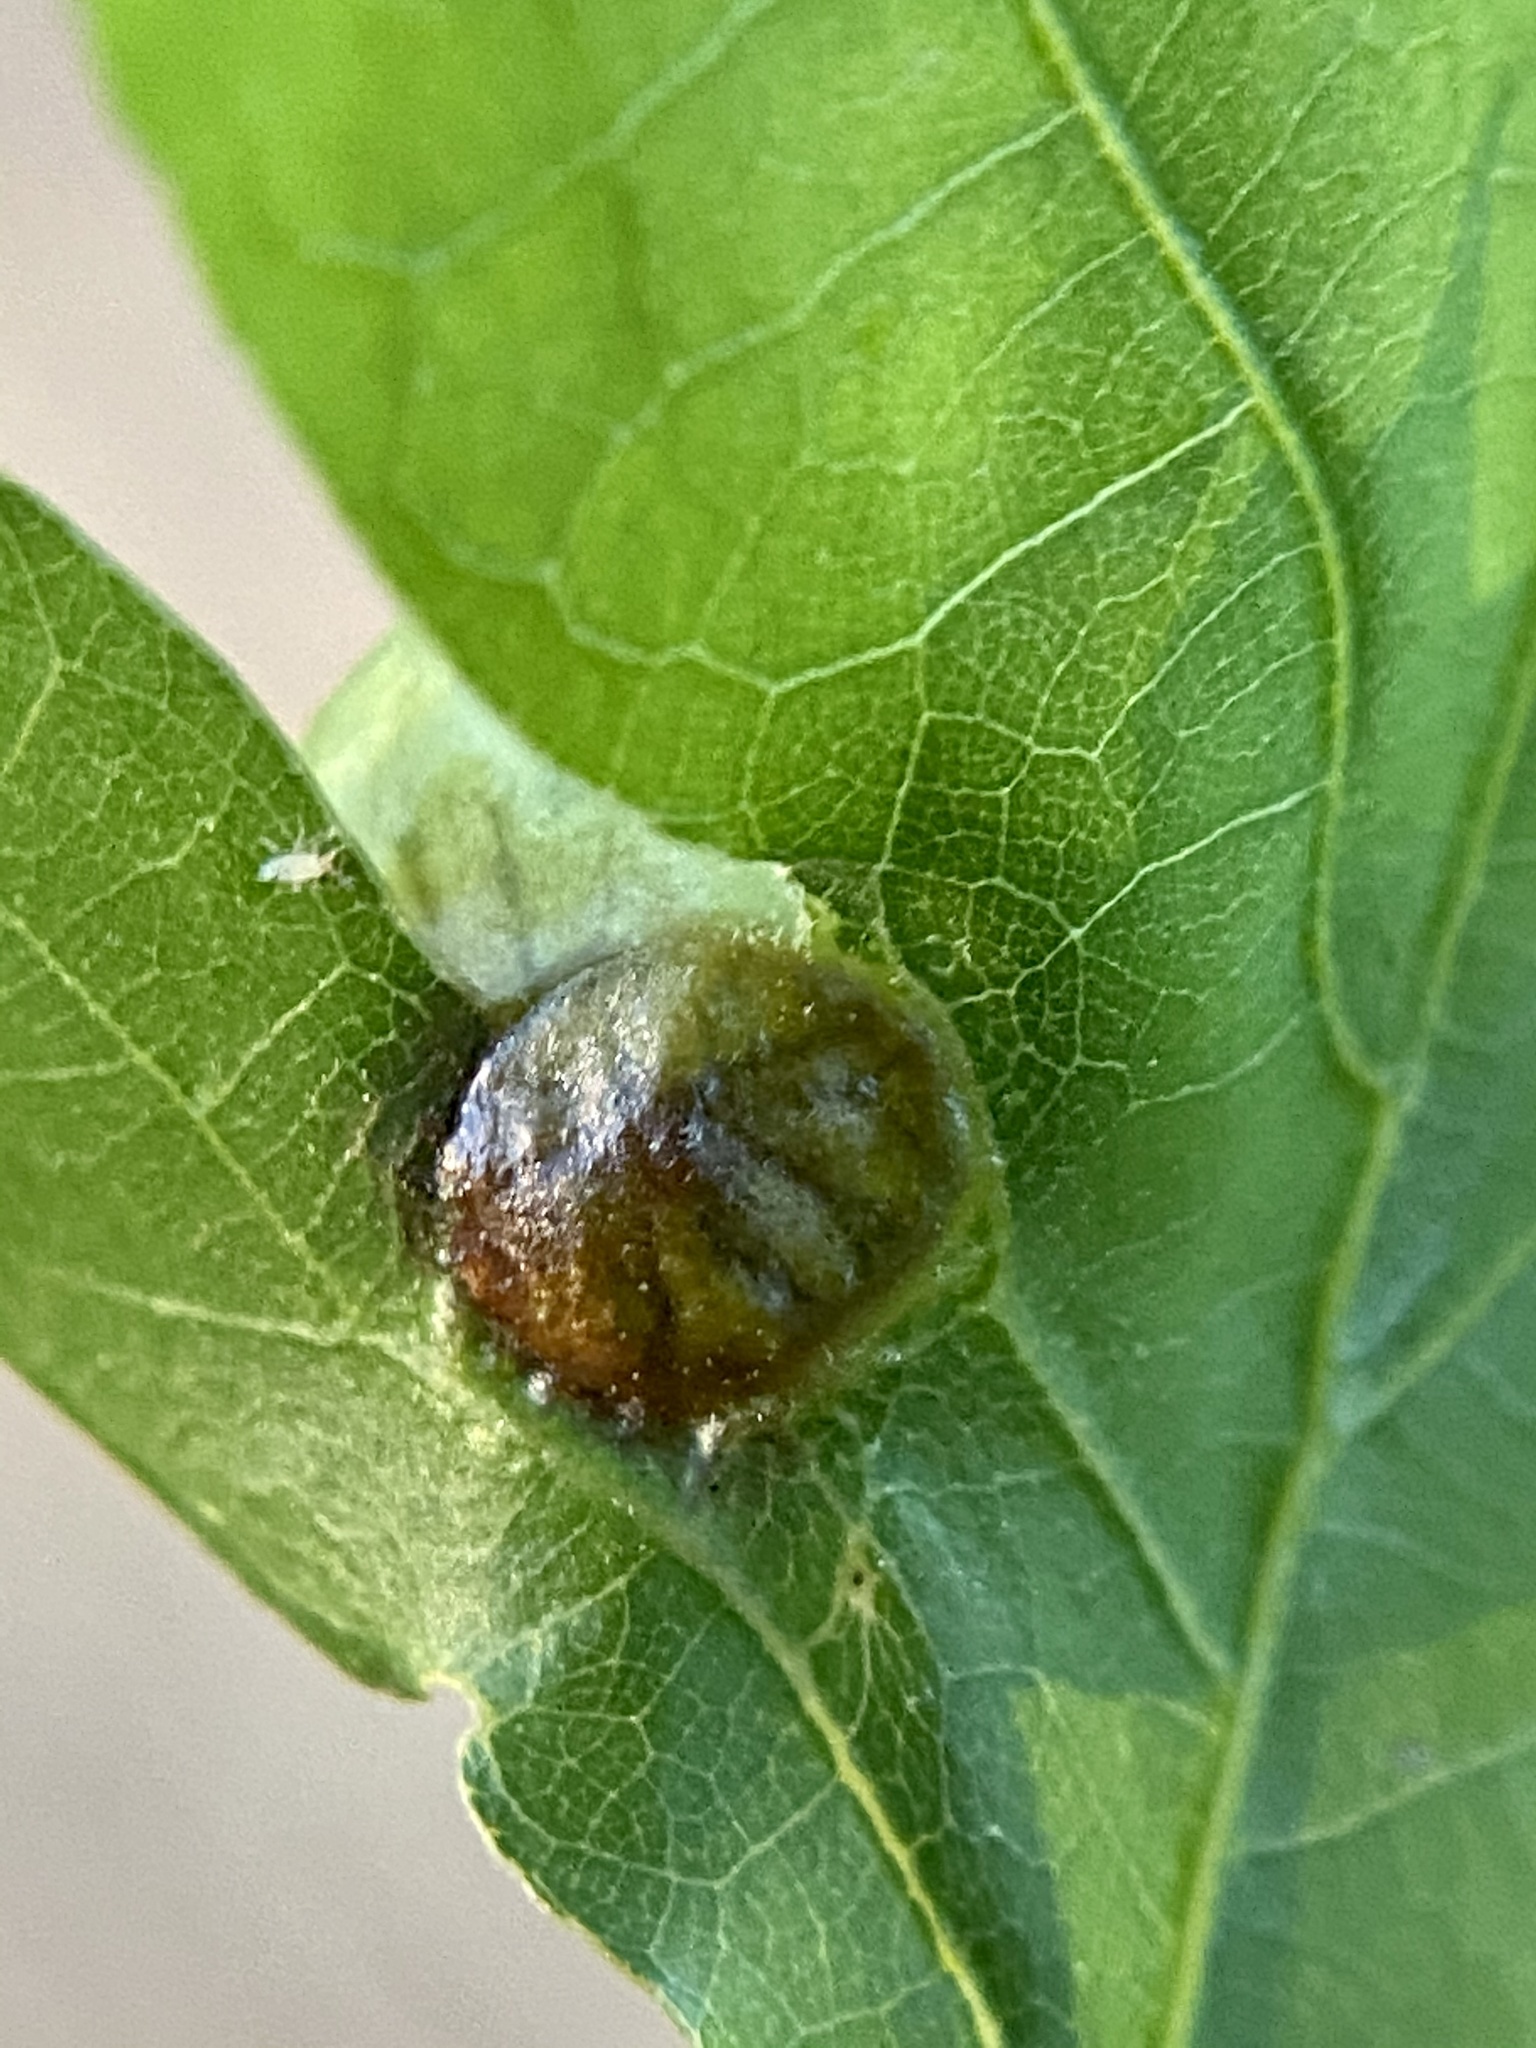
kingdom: Animalia
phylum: Arthropoda
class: Insecta
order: Hymenoptera
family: Cynipidae
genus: Amphibolips
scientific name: Amphibolips
